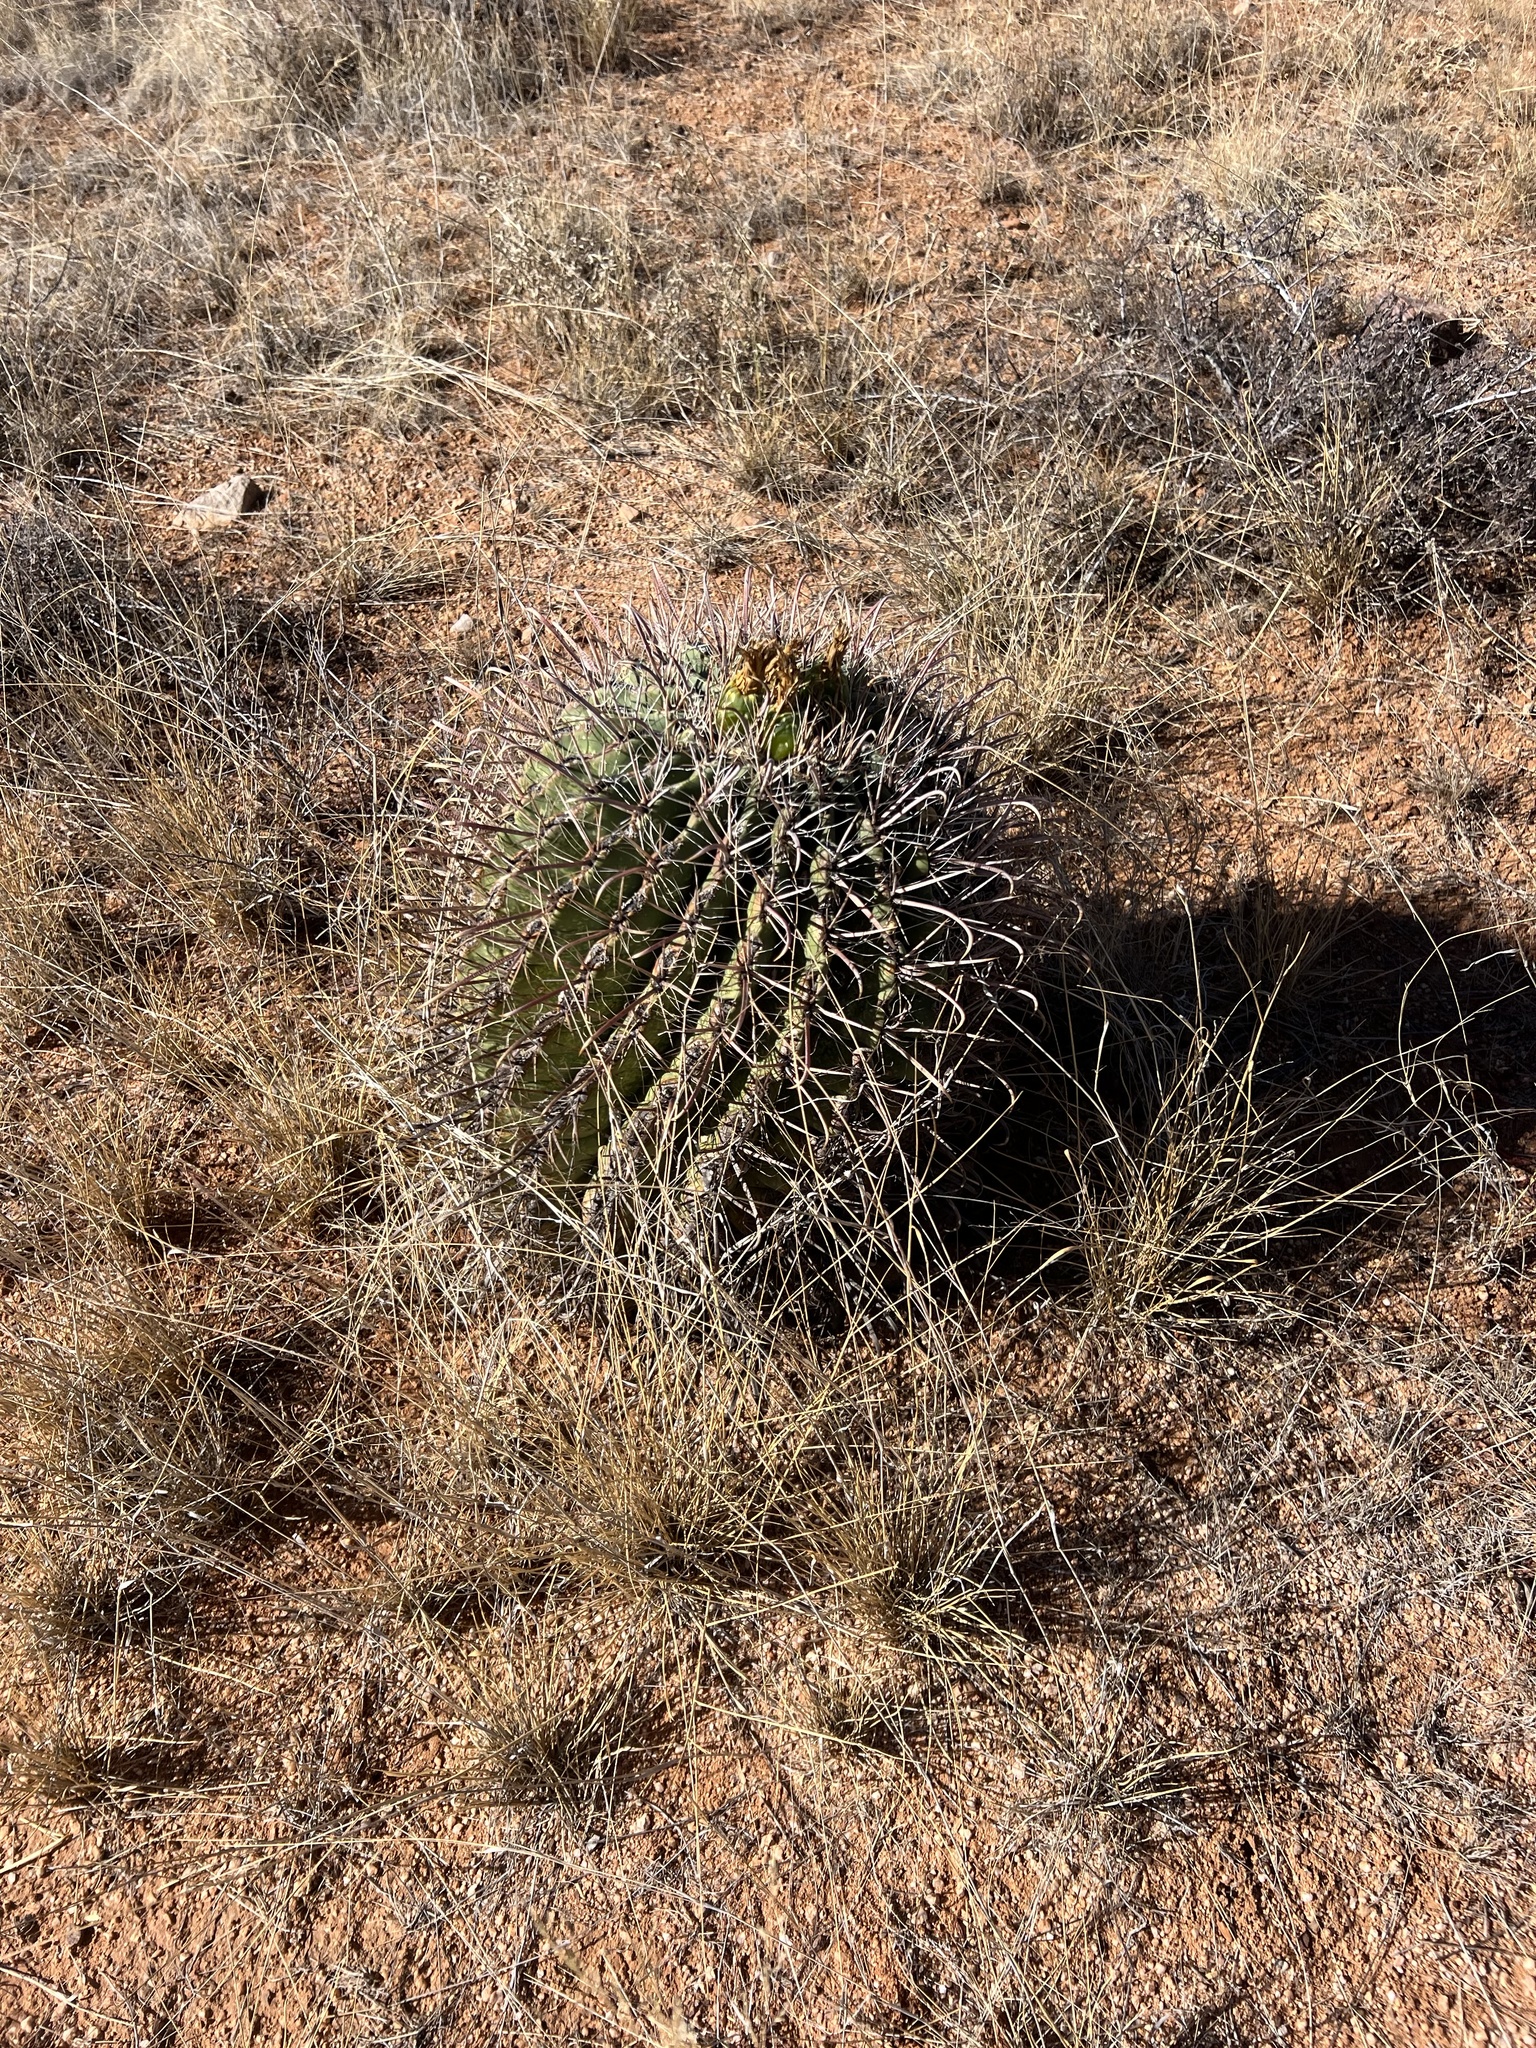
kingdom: Plantae
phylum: Tracheophyta
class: Magnoliopsida
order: Caryophyllales
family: Cactaceae
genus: Ferocactus
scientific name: Ferocactus wislizeni
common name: Candy barrel cactus
